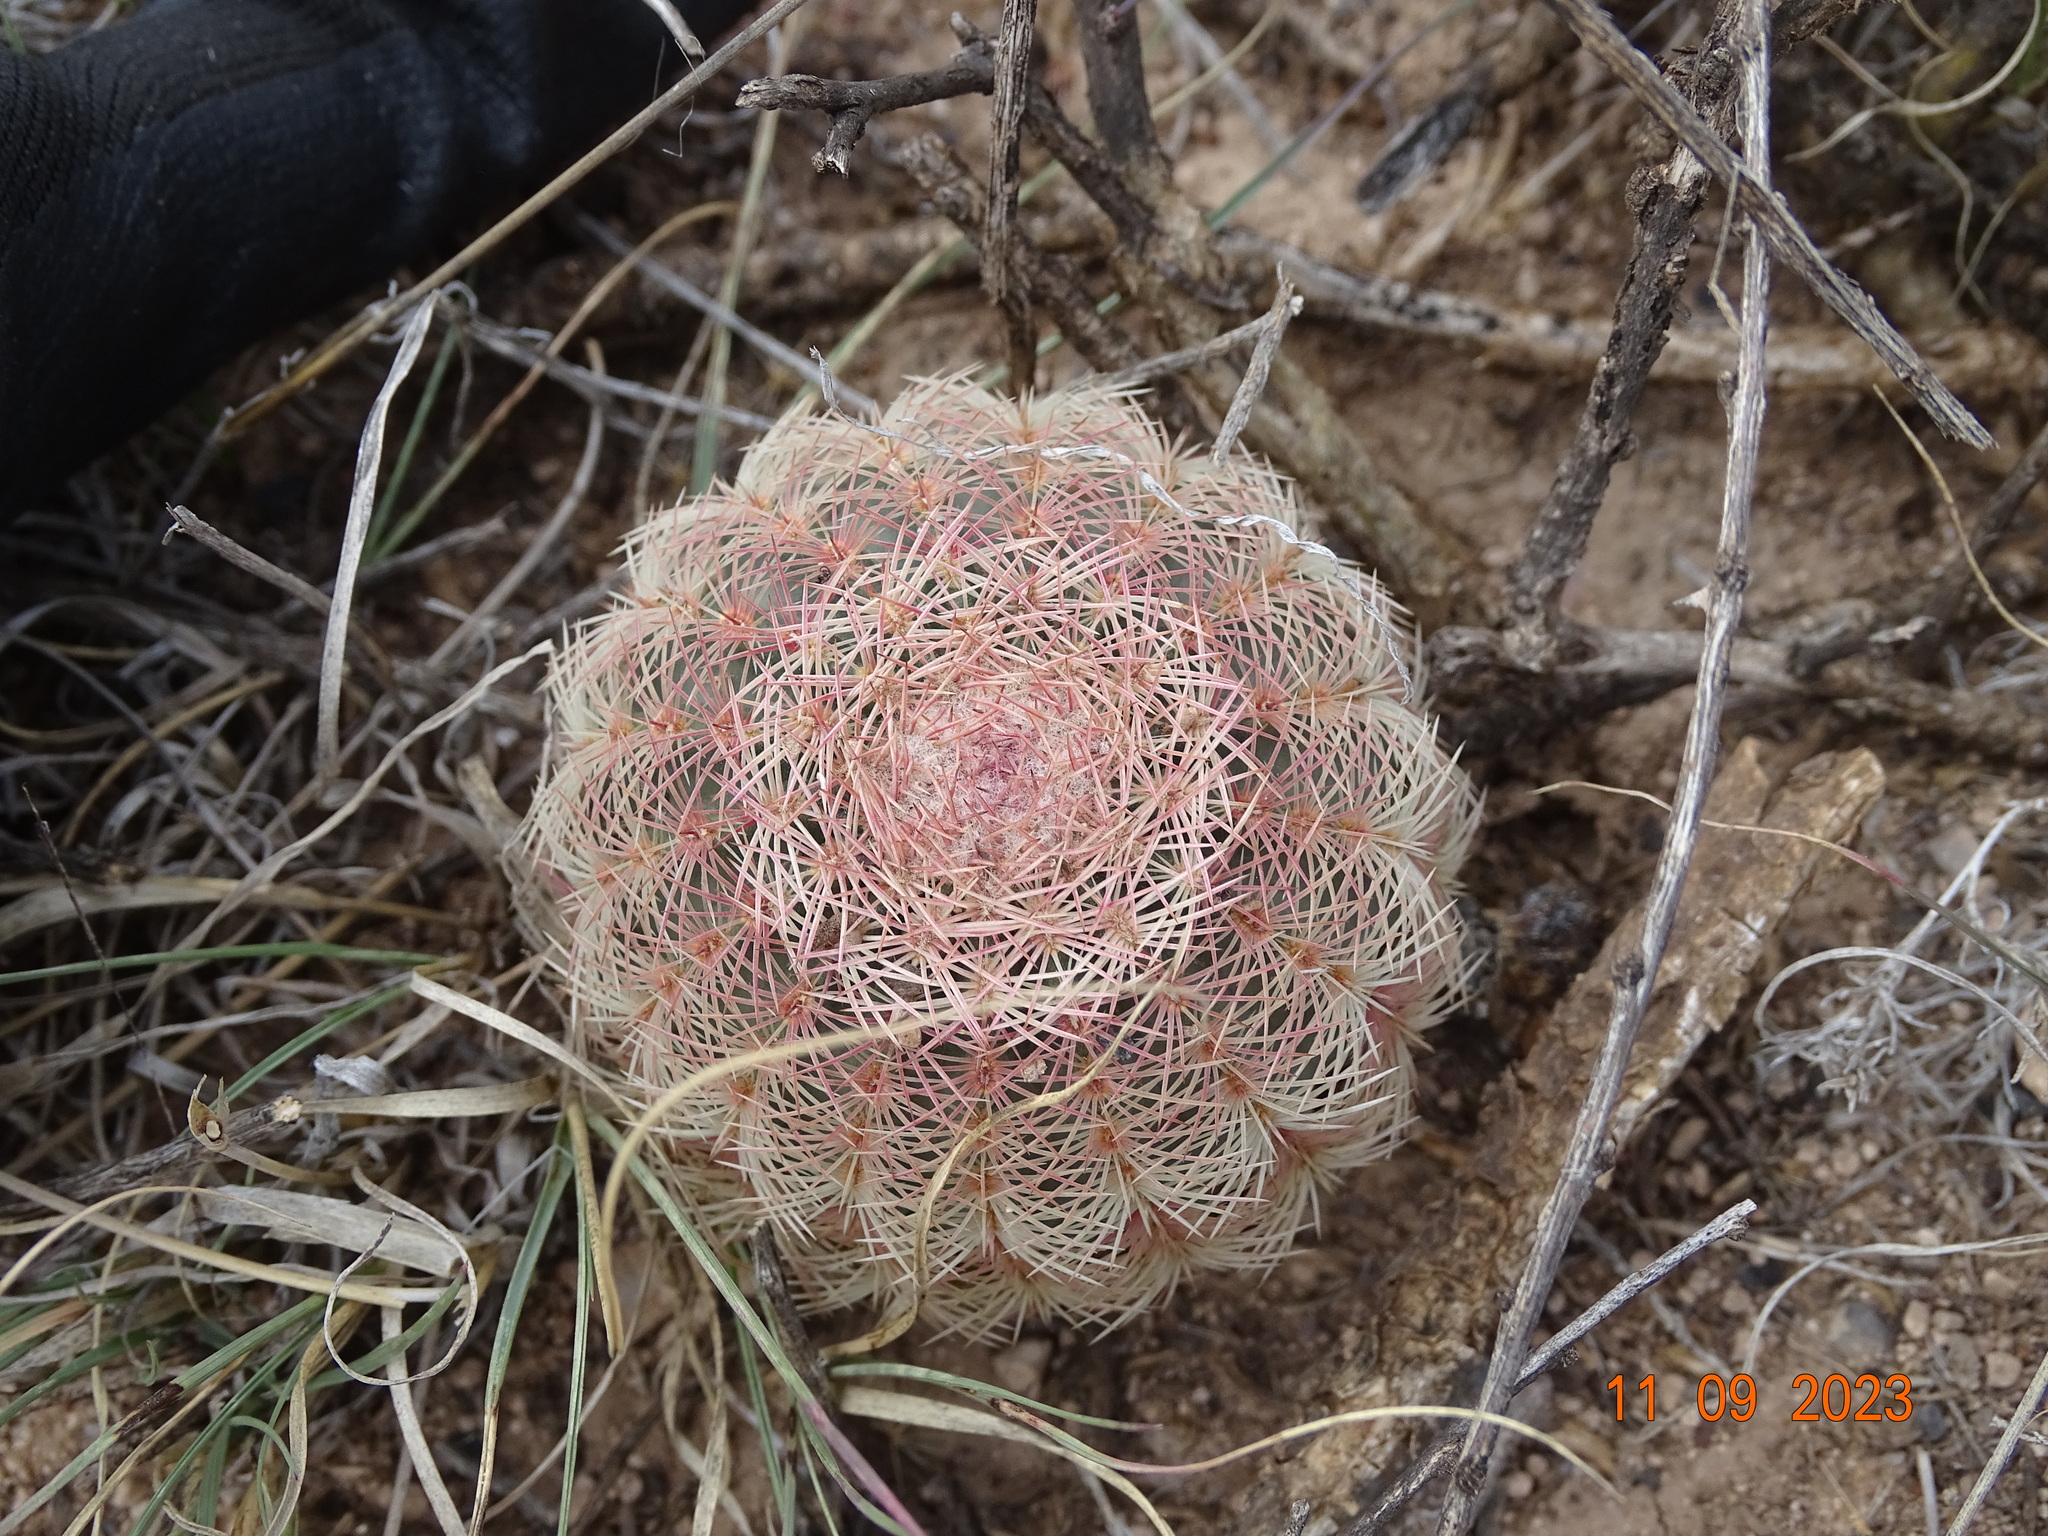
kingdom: Plantae
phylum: Tracheophyta
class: Magnoliopsida
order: Caryophyllales
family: Cactaceae
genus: Echinocereus
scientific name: Echinocereus pectinatus
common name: Rainbow cactus
